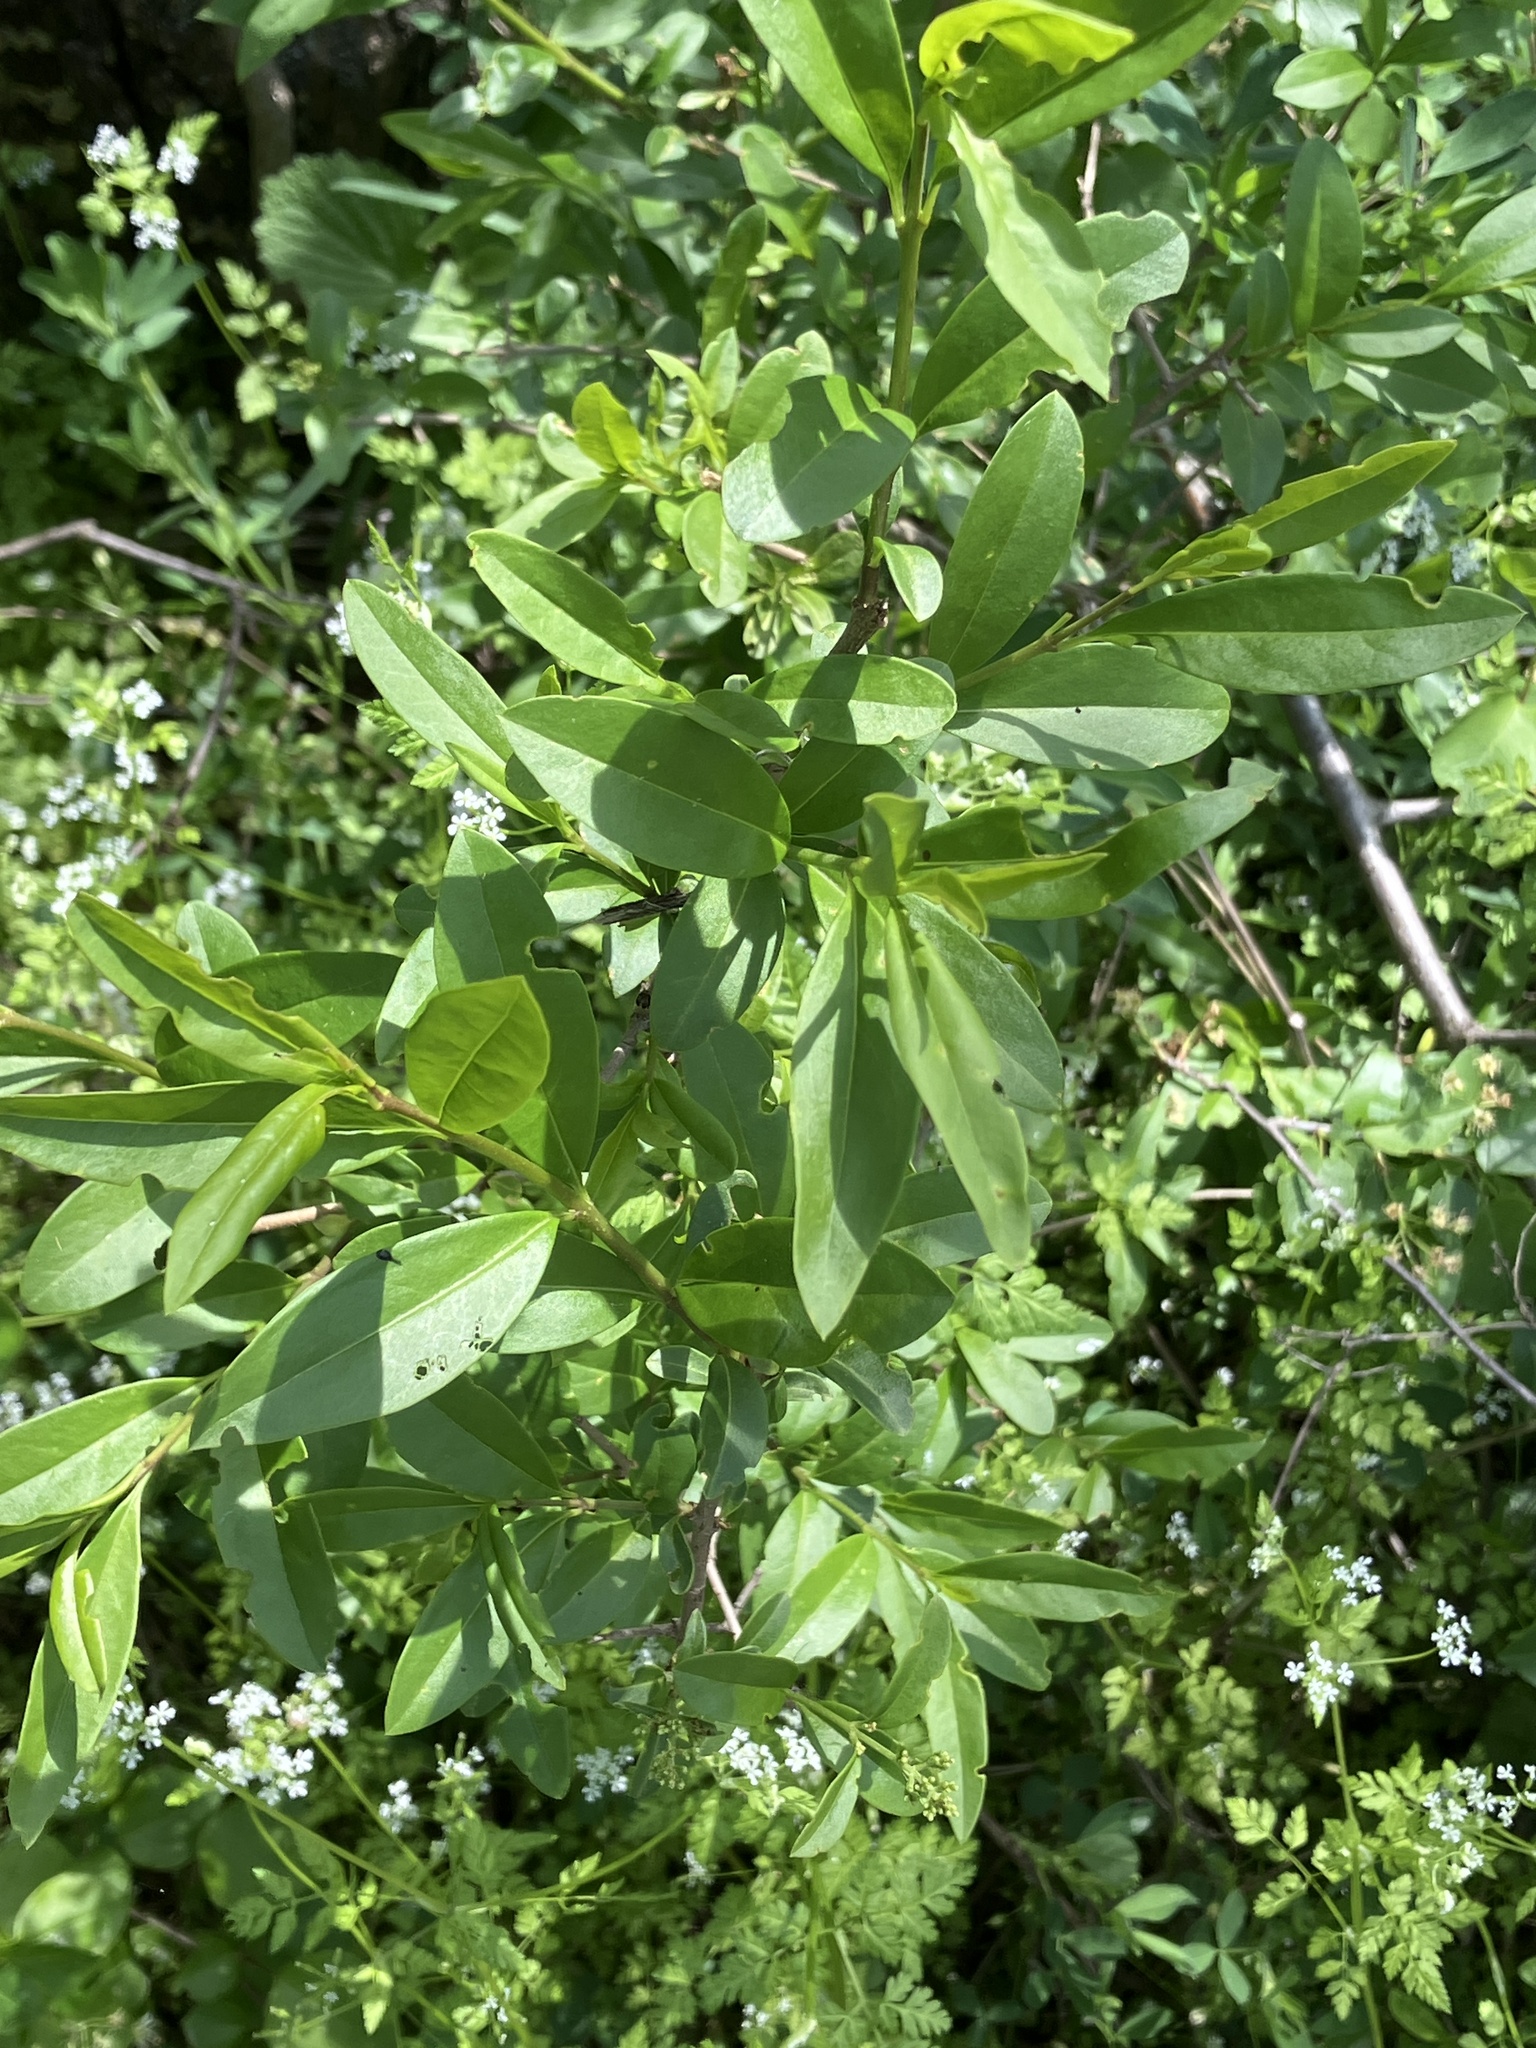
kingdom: Plantae
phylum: Tracheophyta
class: Magnoliopsida
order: Lamiales
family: Oleaceae
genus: Ligustrum
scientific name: Ligustrum vulgare
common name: Wild privet
